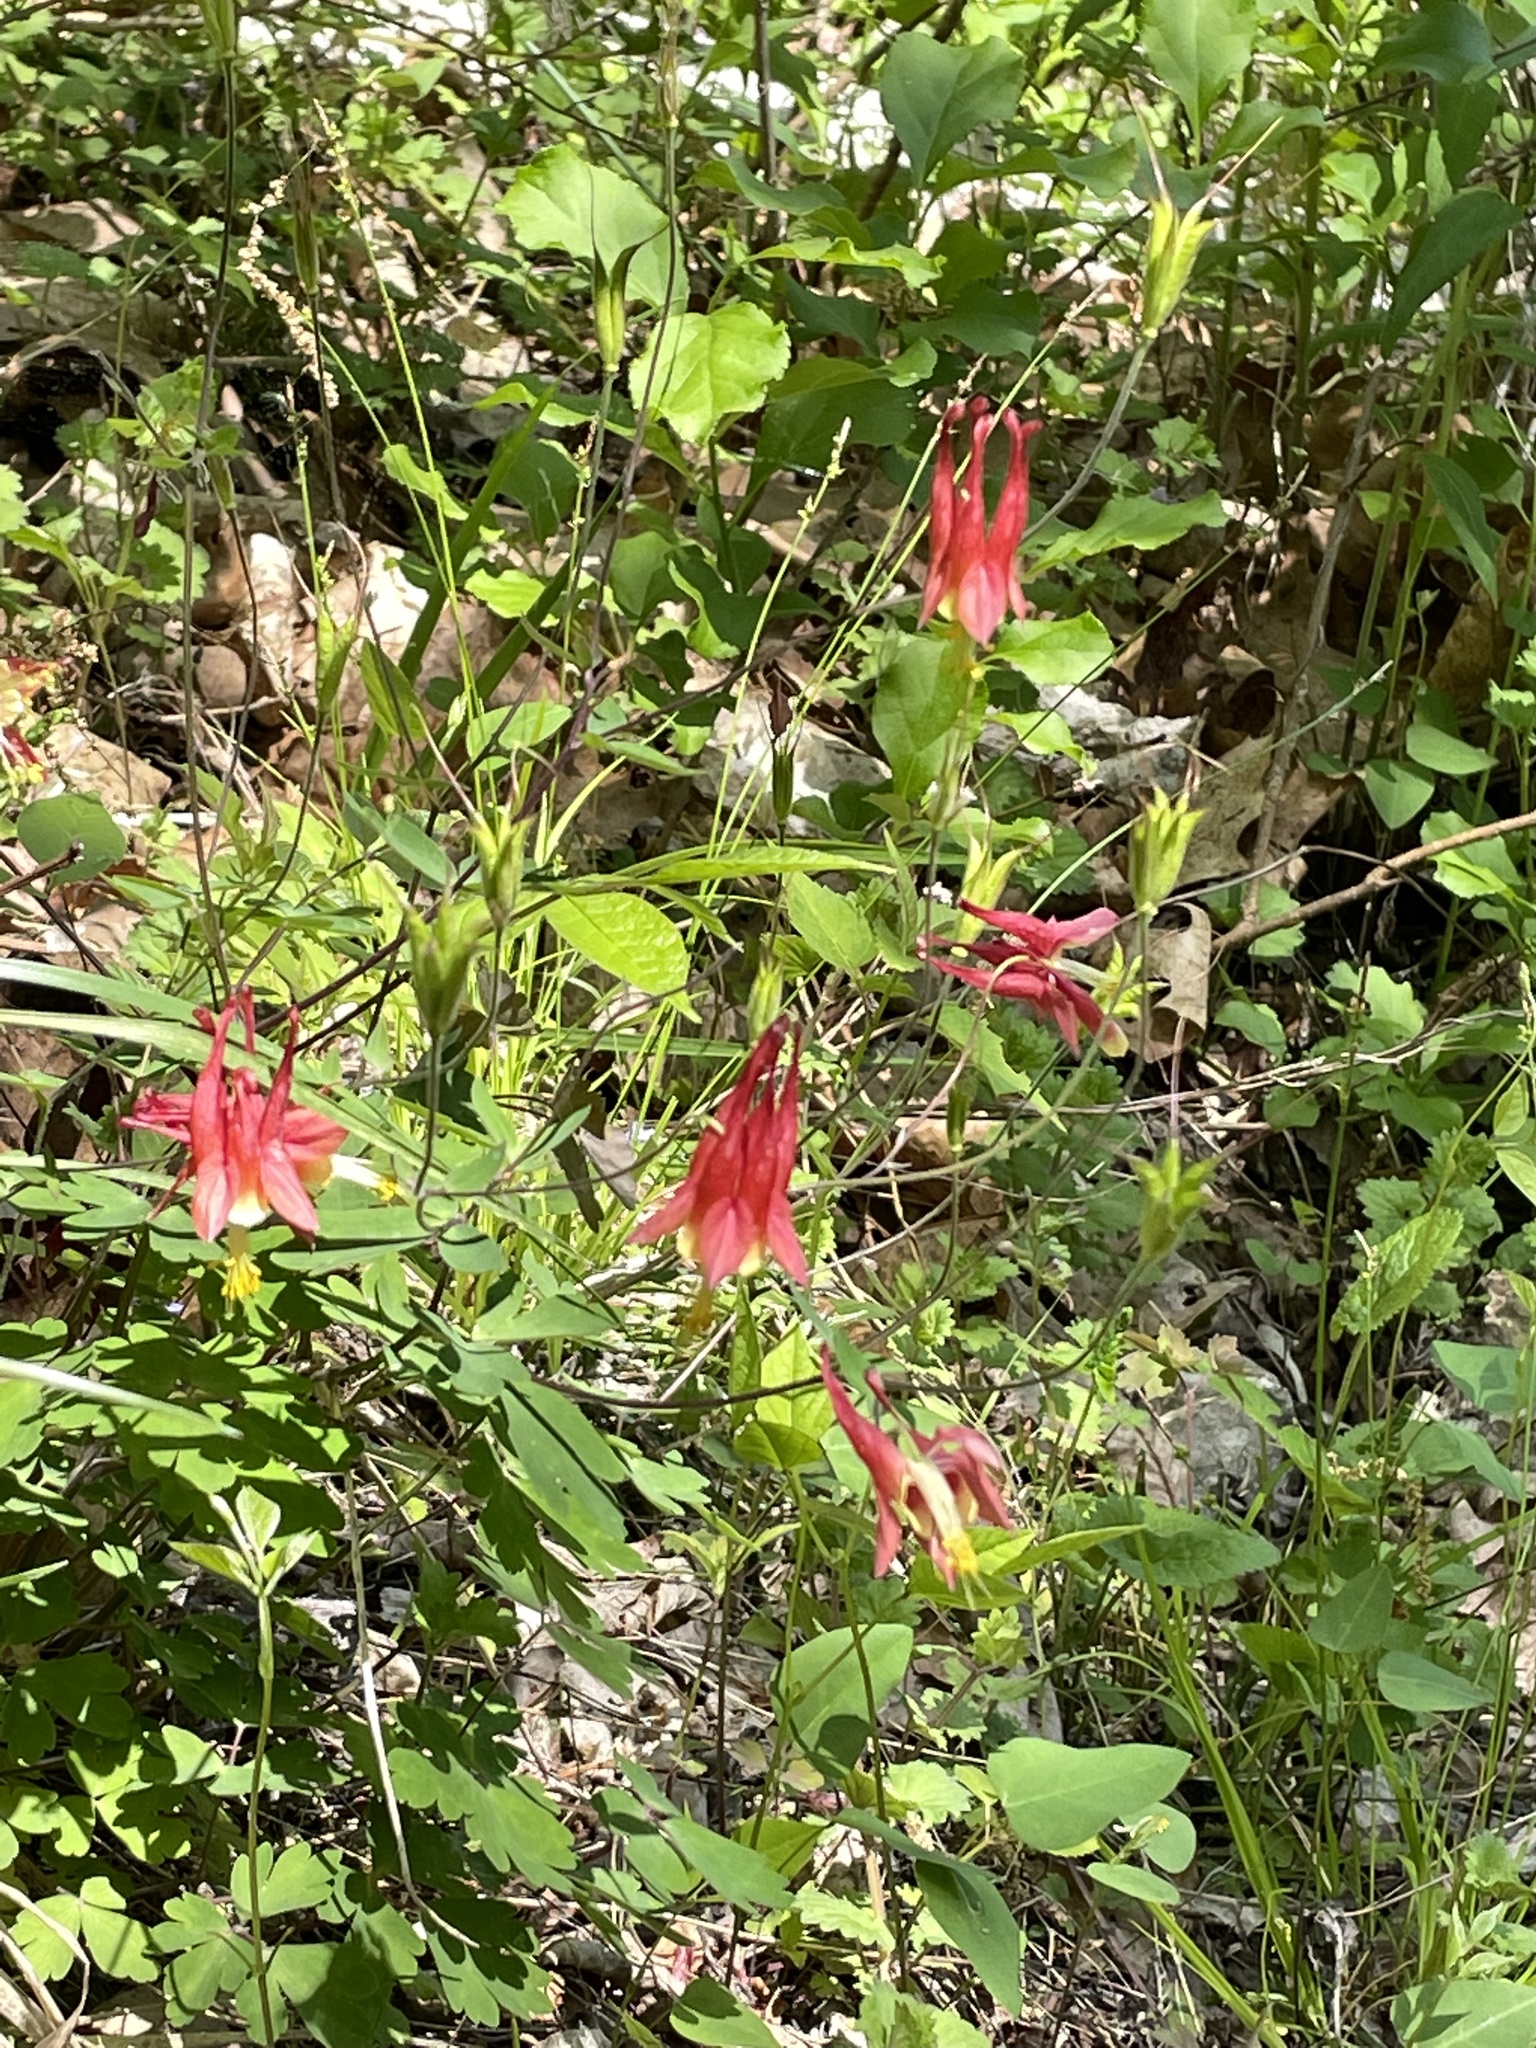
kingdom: Plantae
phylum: Tracheophyta
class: Magnoliopsida
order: Ranunculales
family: Ranunculaceae
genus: Aquilegia
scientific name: Aquilegia canadensis
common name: American columbine
